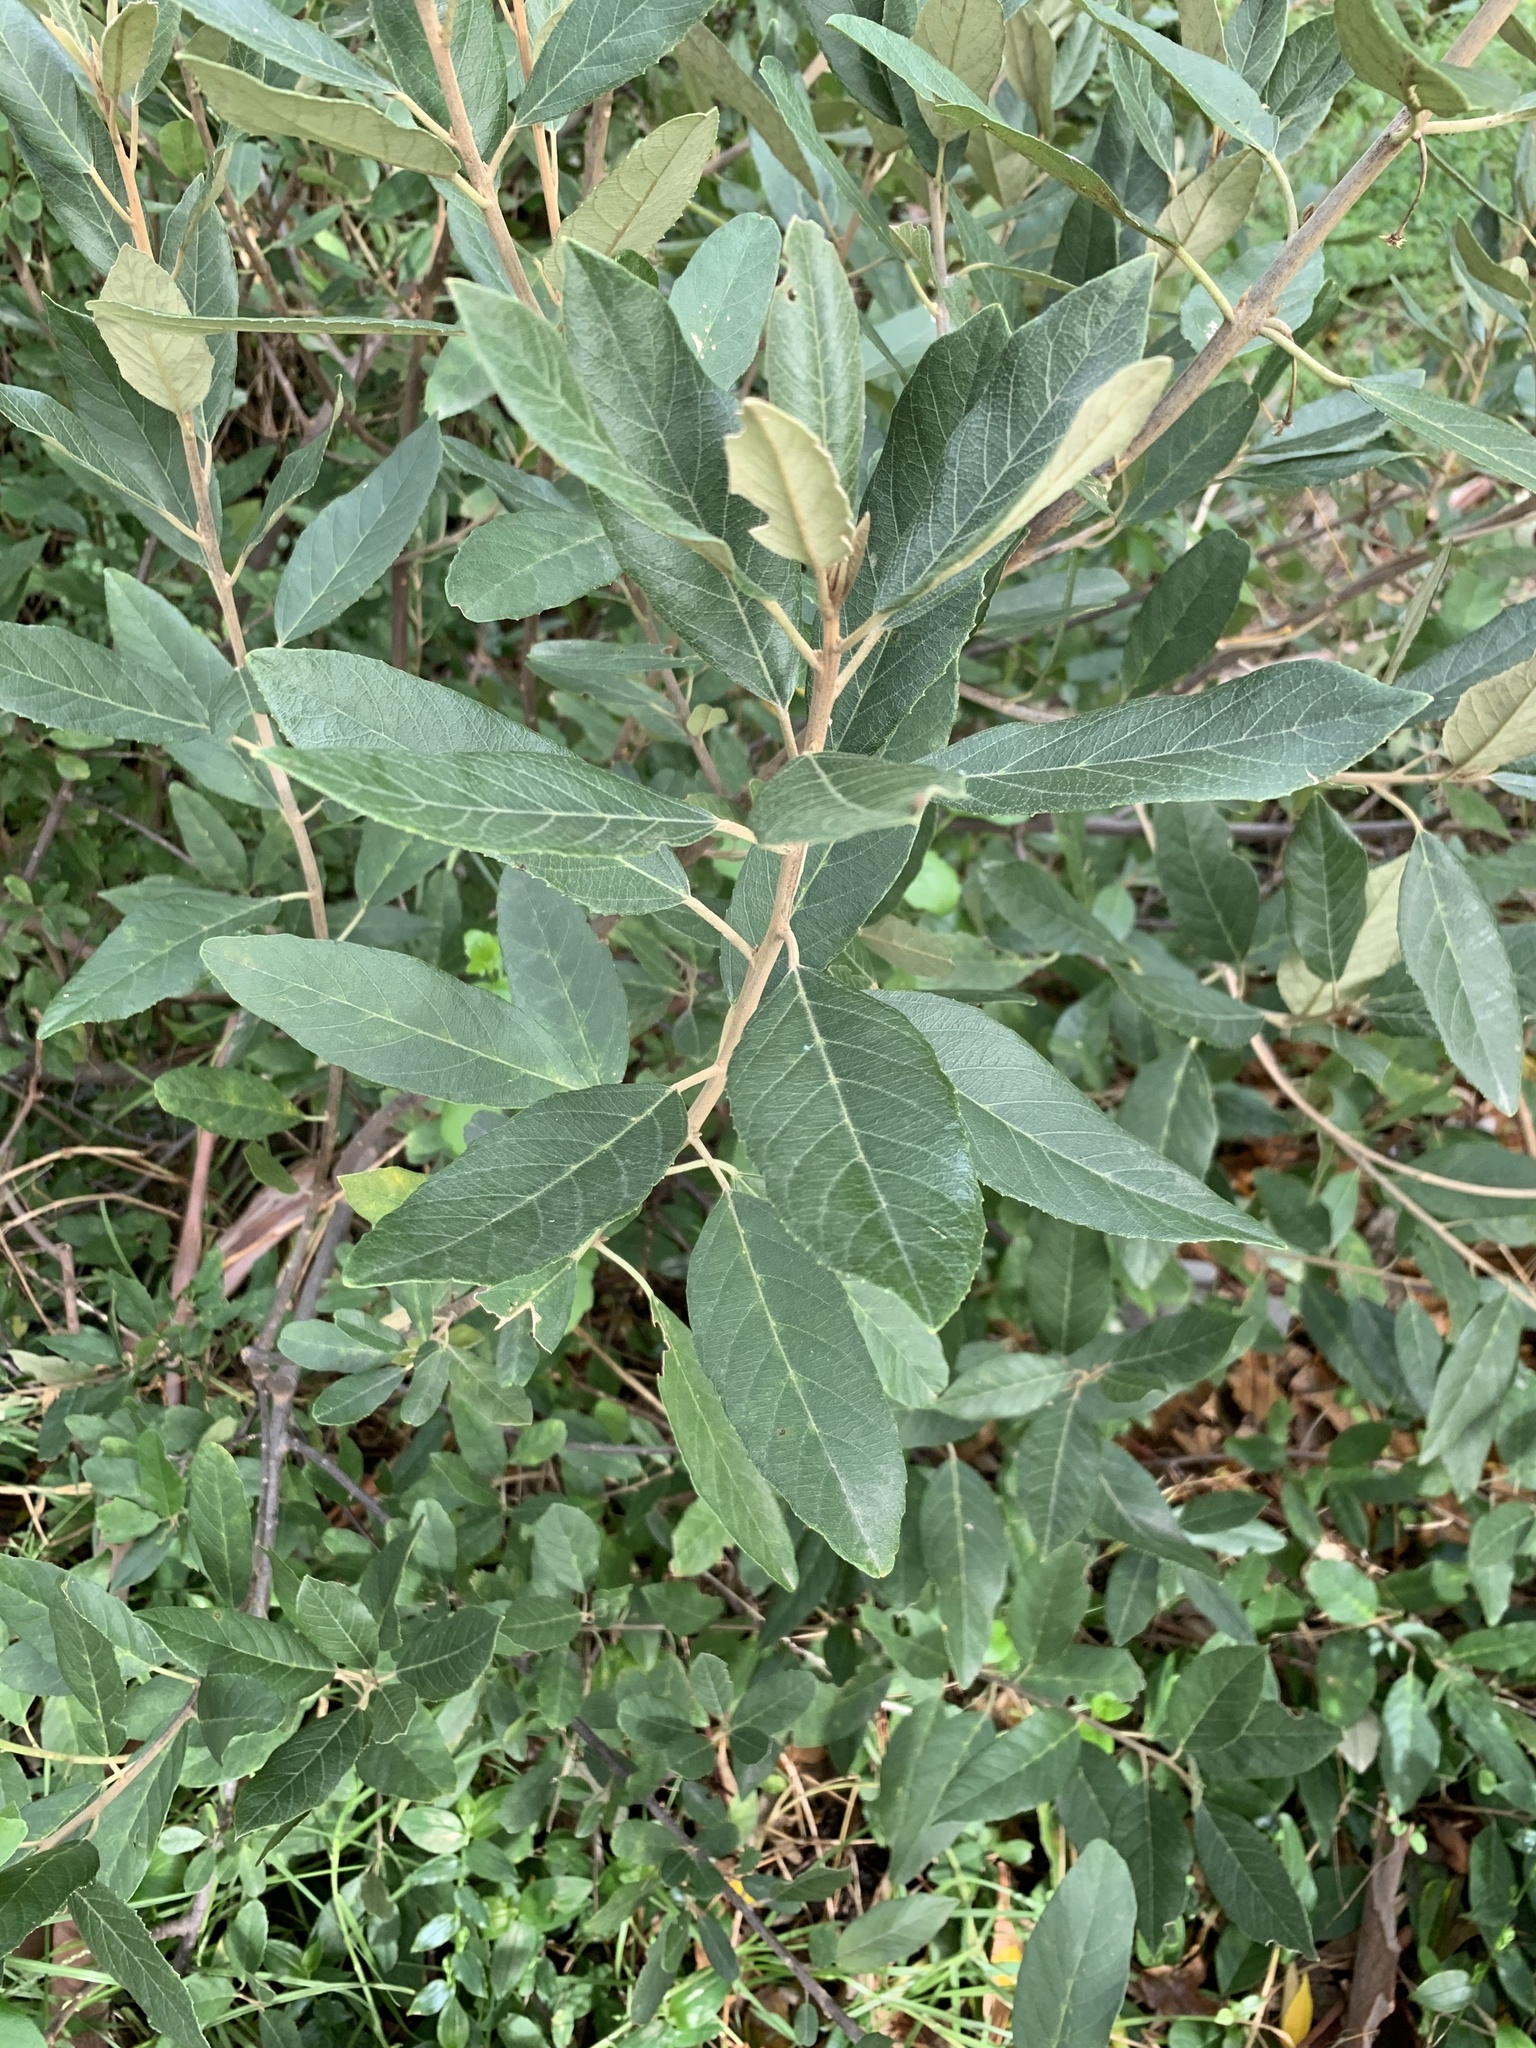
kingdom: Plantae
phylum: Tracheophyta
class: Magnoliopsida
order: Malpighiales
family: Achariaceae
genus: Kiggelaria
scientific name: Kiggelaria africana
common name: Wild peach
